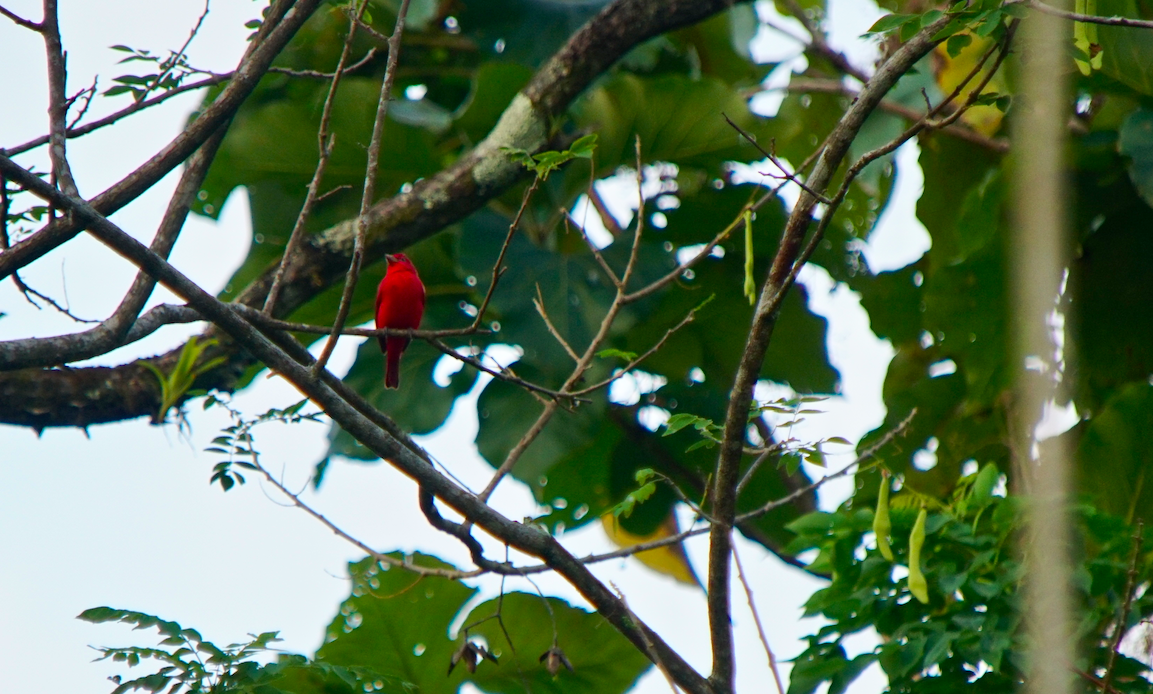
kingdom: Animalia
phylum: Chordata
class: Aves
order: Passeriformes
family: Cardinalidae
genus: Piranga
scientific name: Piranga rubra
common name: Summer tanager
